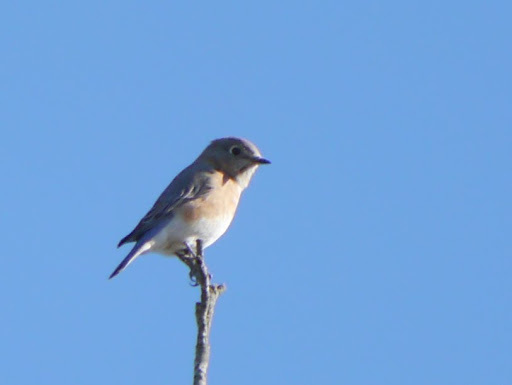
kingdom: Animalia
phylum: Chordata
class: Aves
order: Passeriformes
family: Turdidae
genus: Sialia
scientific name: Sialia sialis
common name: Eastern bluebird
